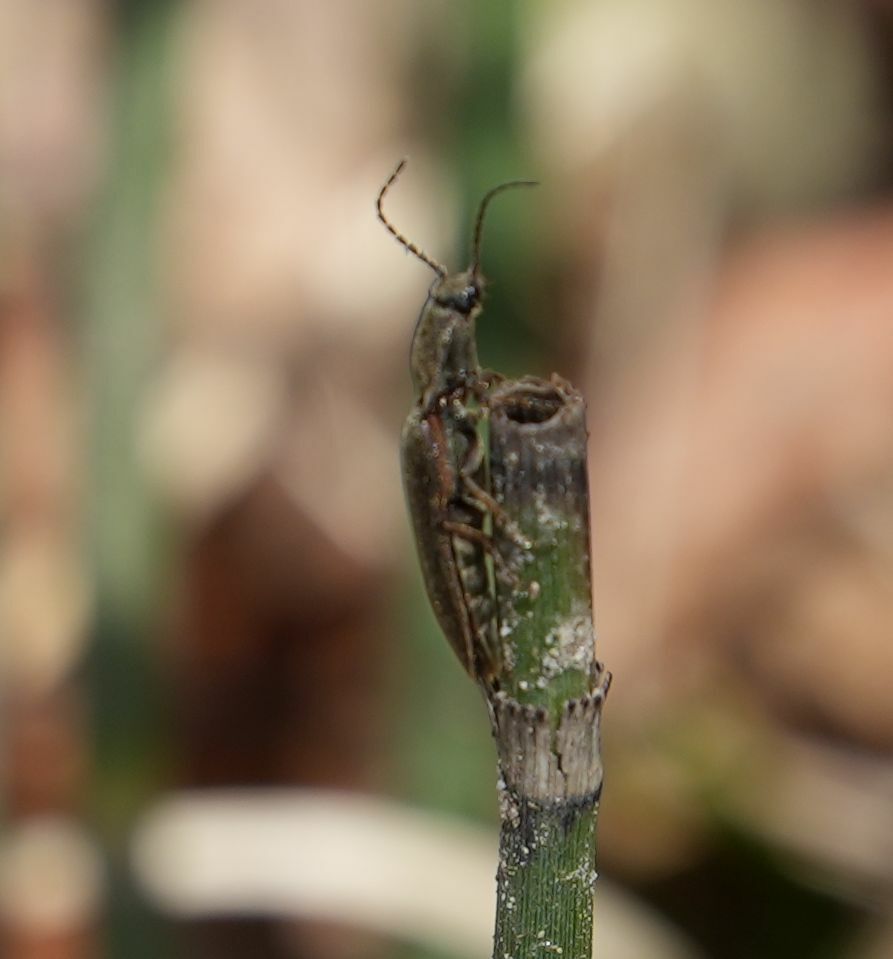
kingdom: Animalia
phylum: Arthropoda
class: Insecta
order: Coleoptera
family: Elateridae
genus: Sylvanelater
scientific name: Sylvanelater cylindriformis
